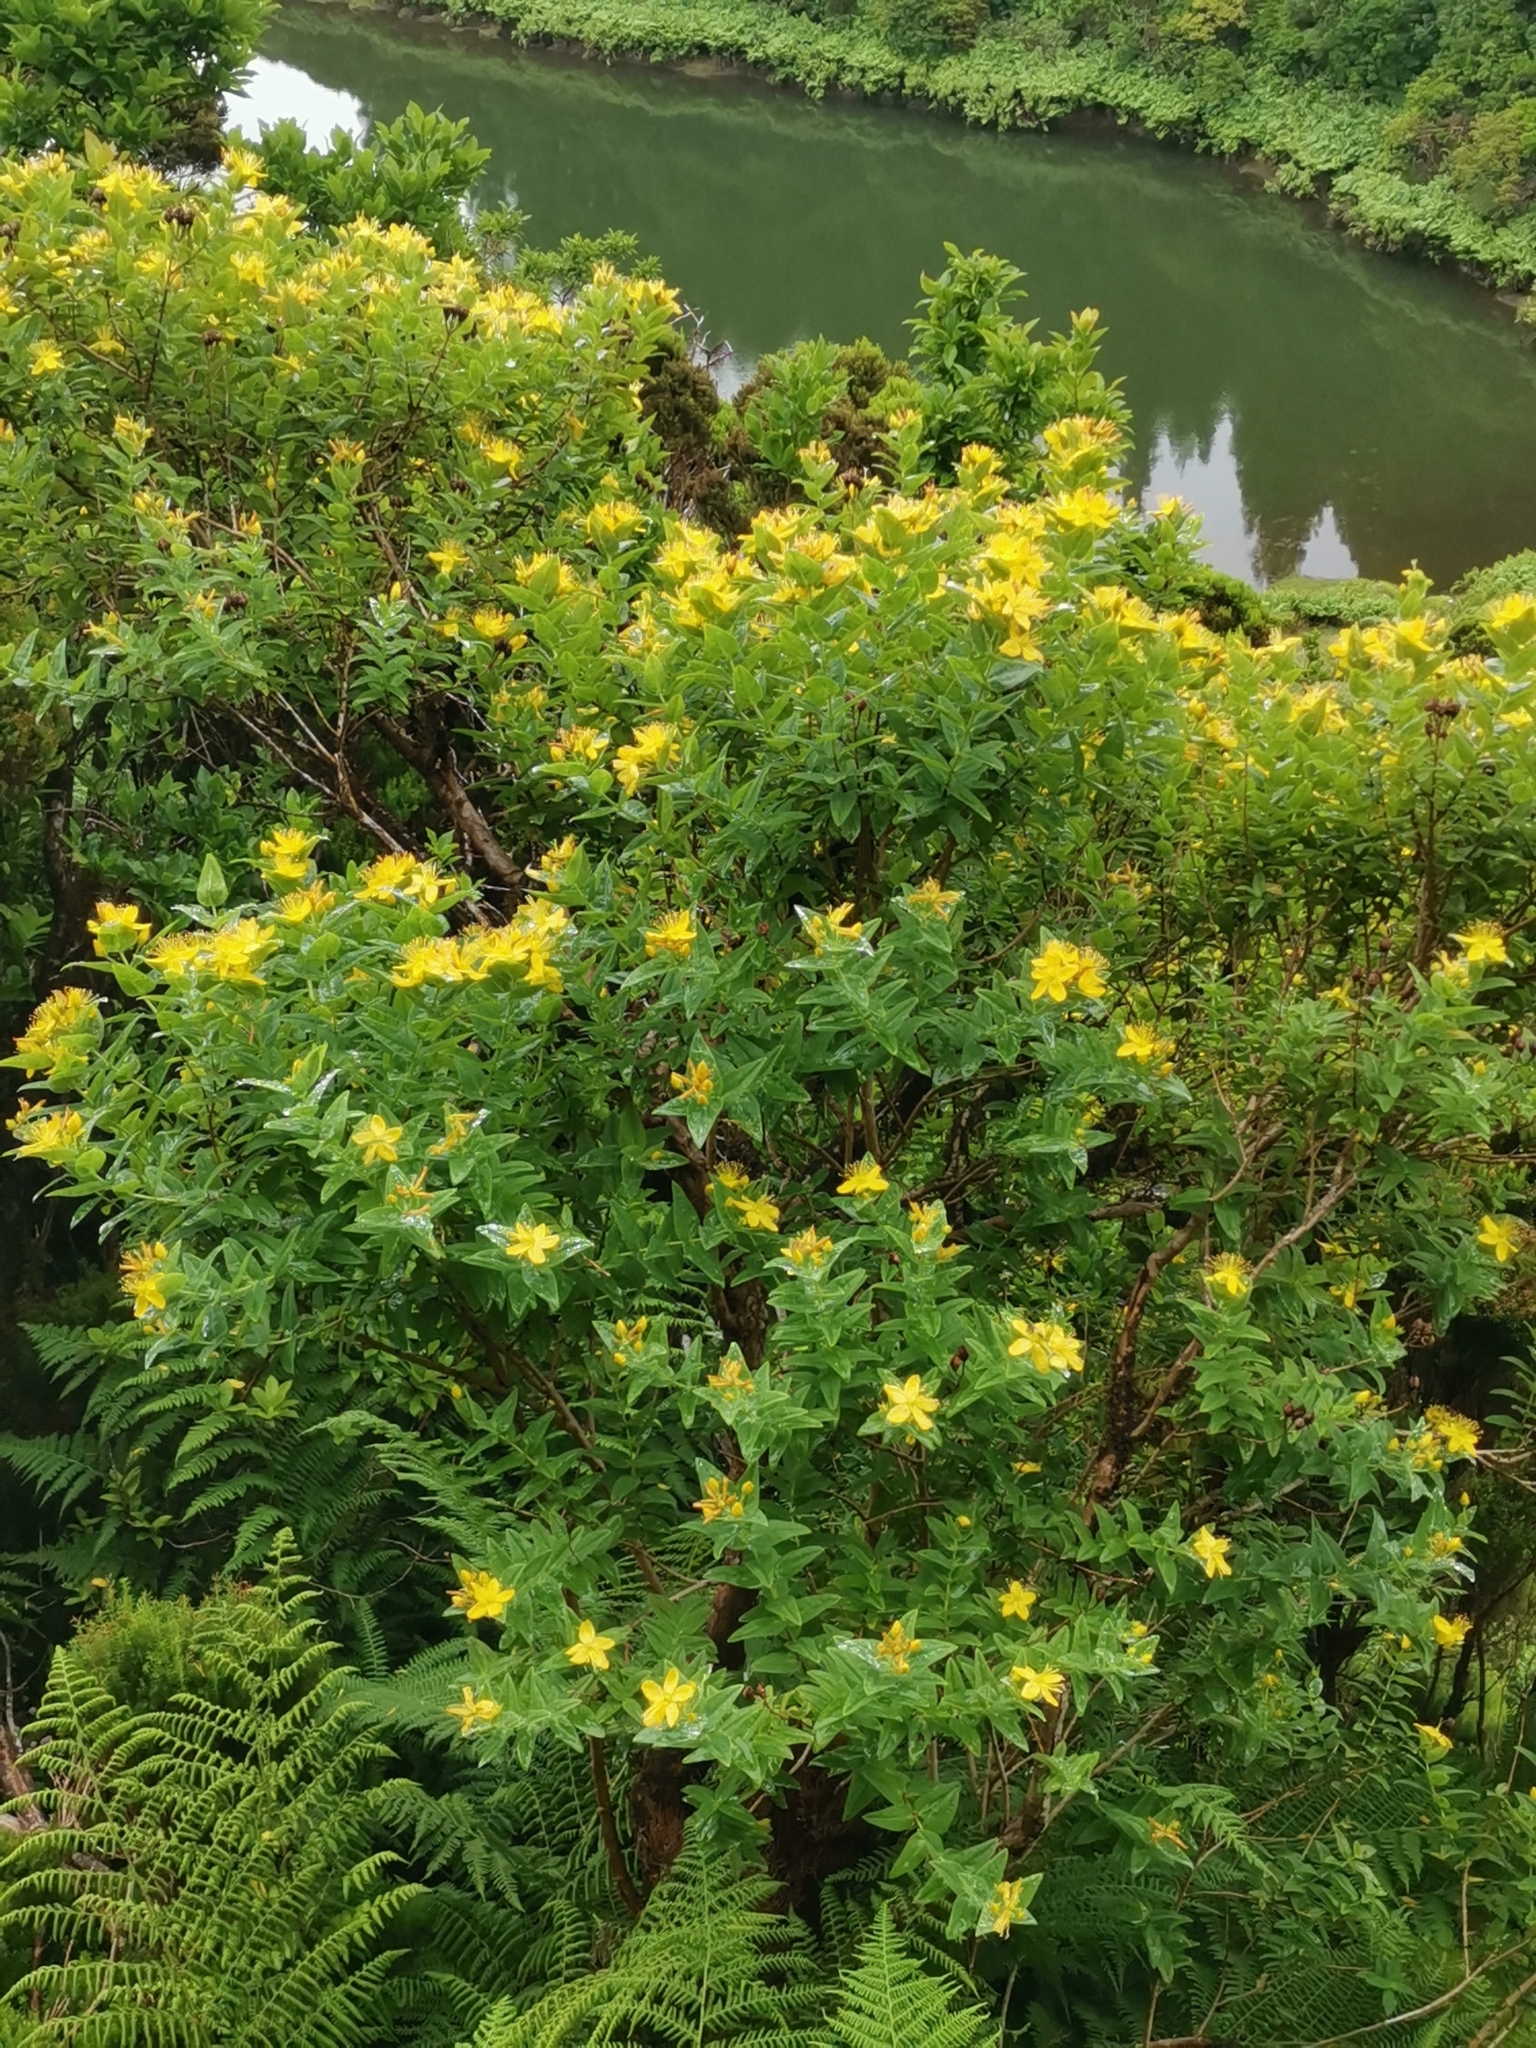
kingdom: Plantae
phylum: Tracheophyta
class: Magnoliopsida
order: Malpighiales
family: Hypericaceae
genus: Hypericum
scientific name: Hypericum foliosum
